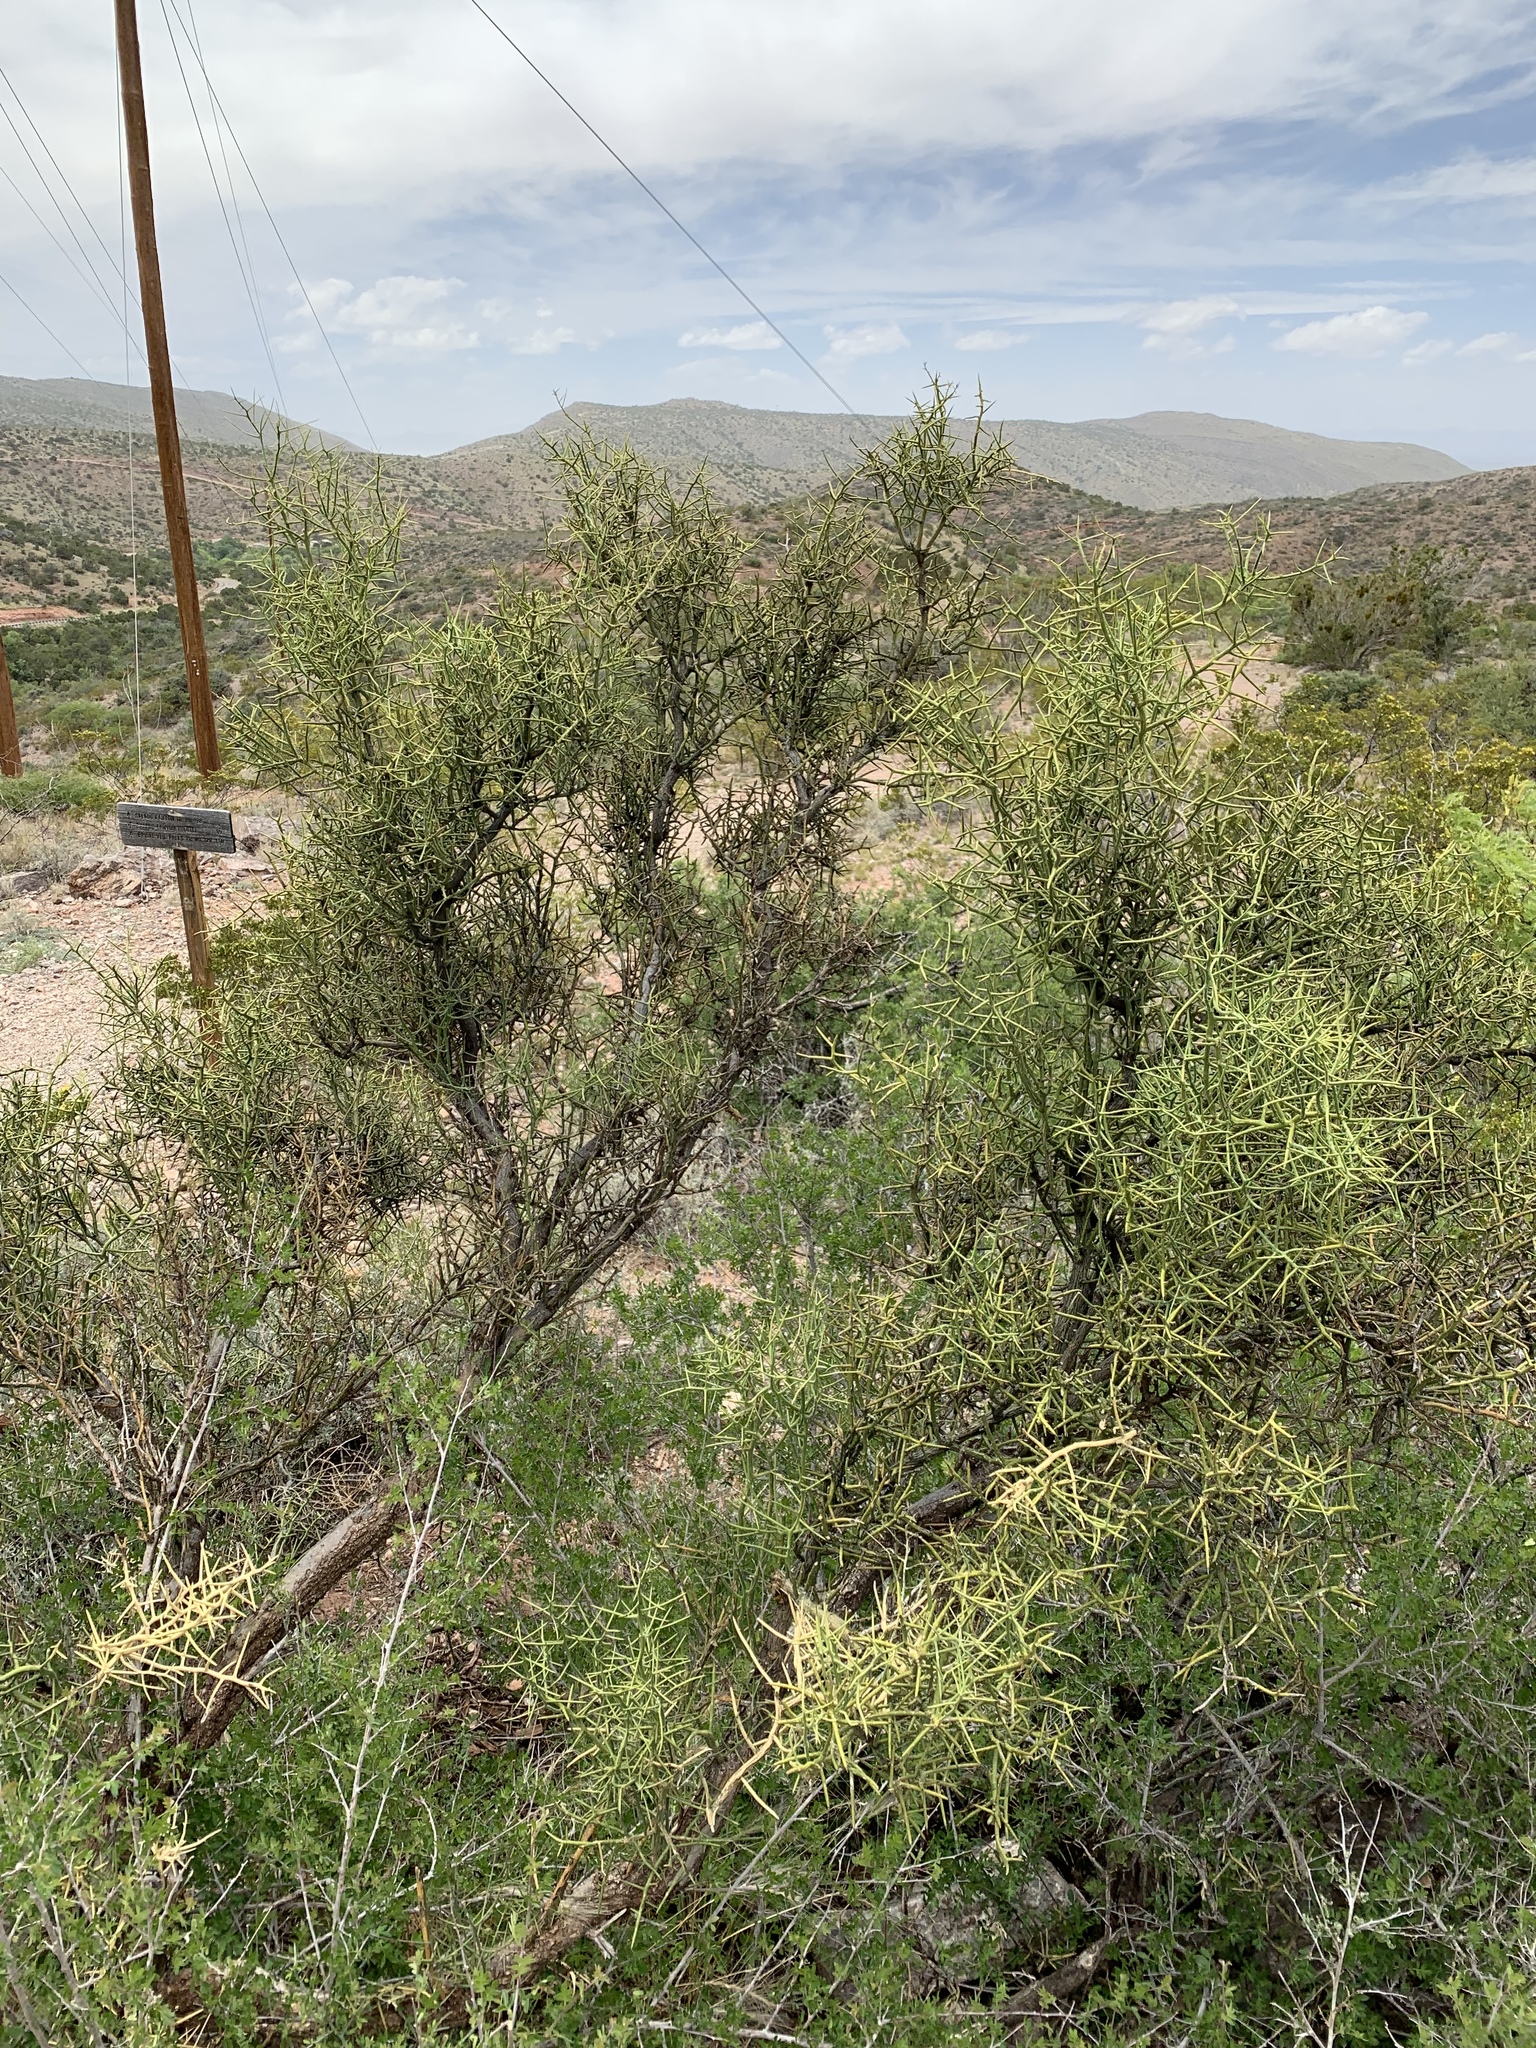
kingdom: Plantae
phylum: Tracheophyta
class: Magnoliopsida
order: Brassicales
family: Koeberliniaceae
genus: Koeberlinia
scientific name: Koeberlinia spinosa
